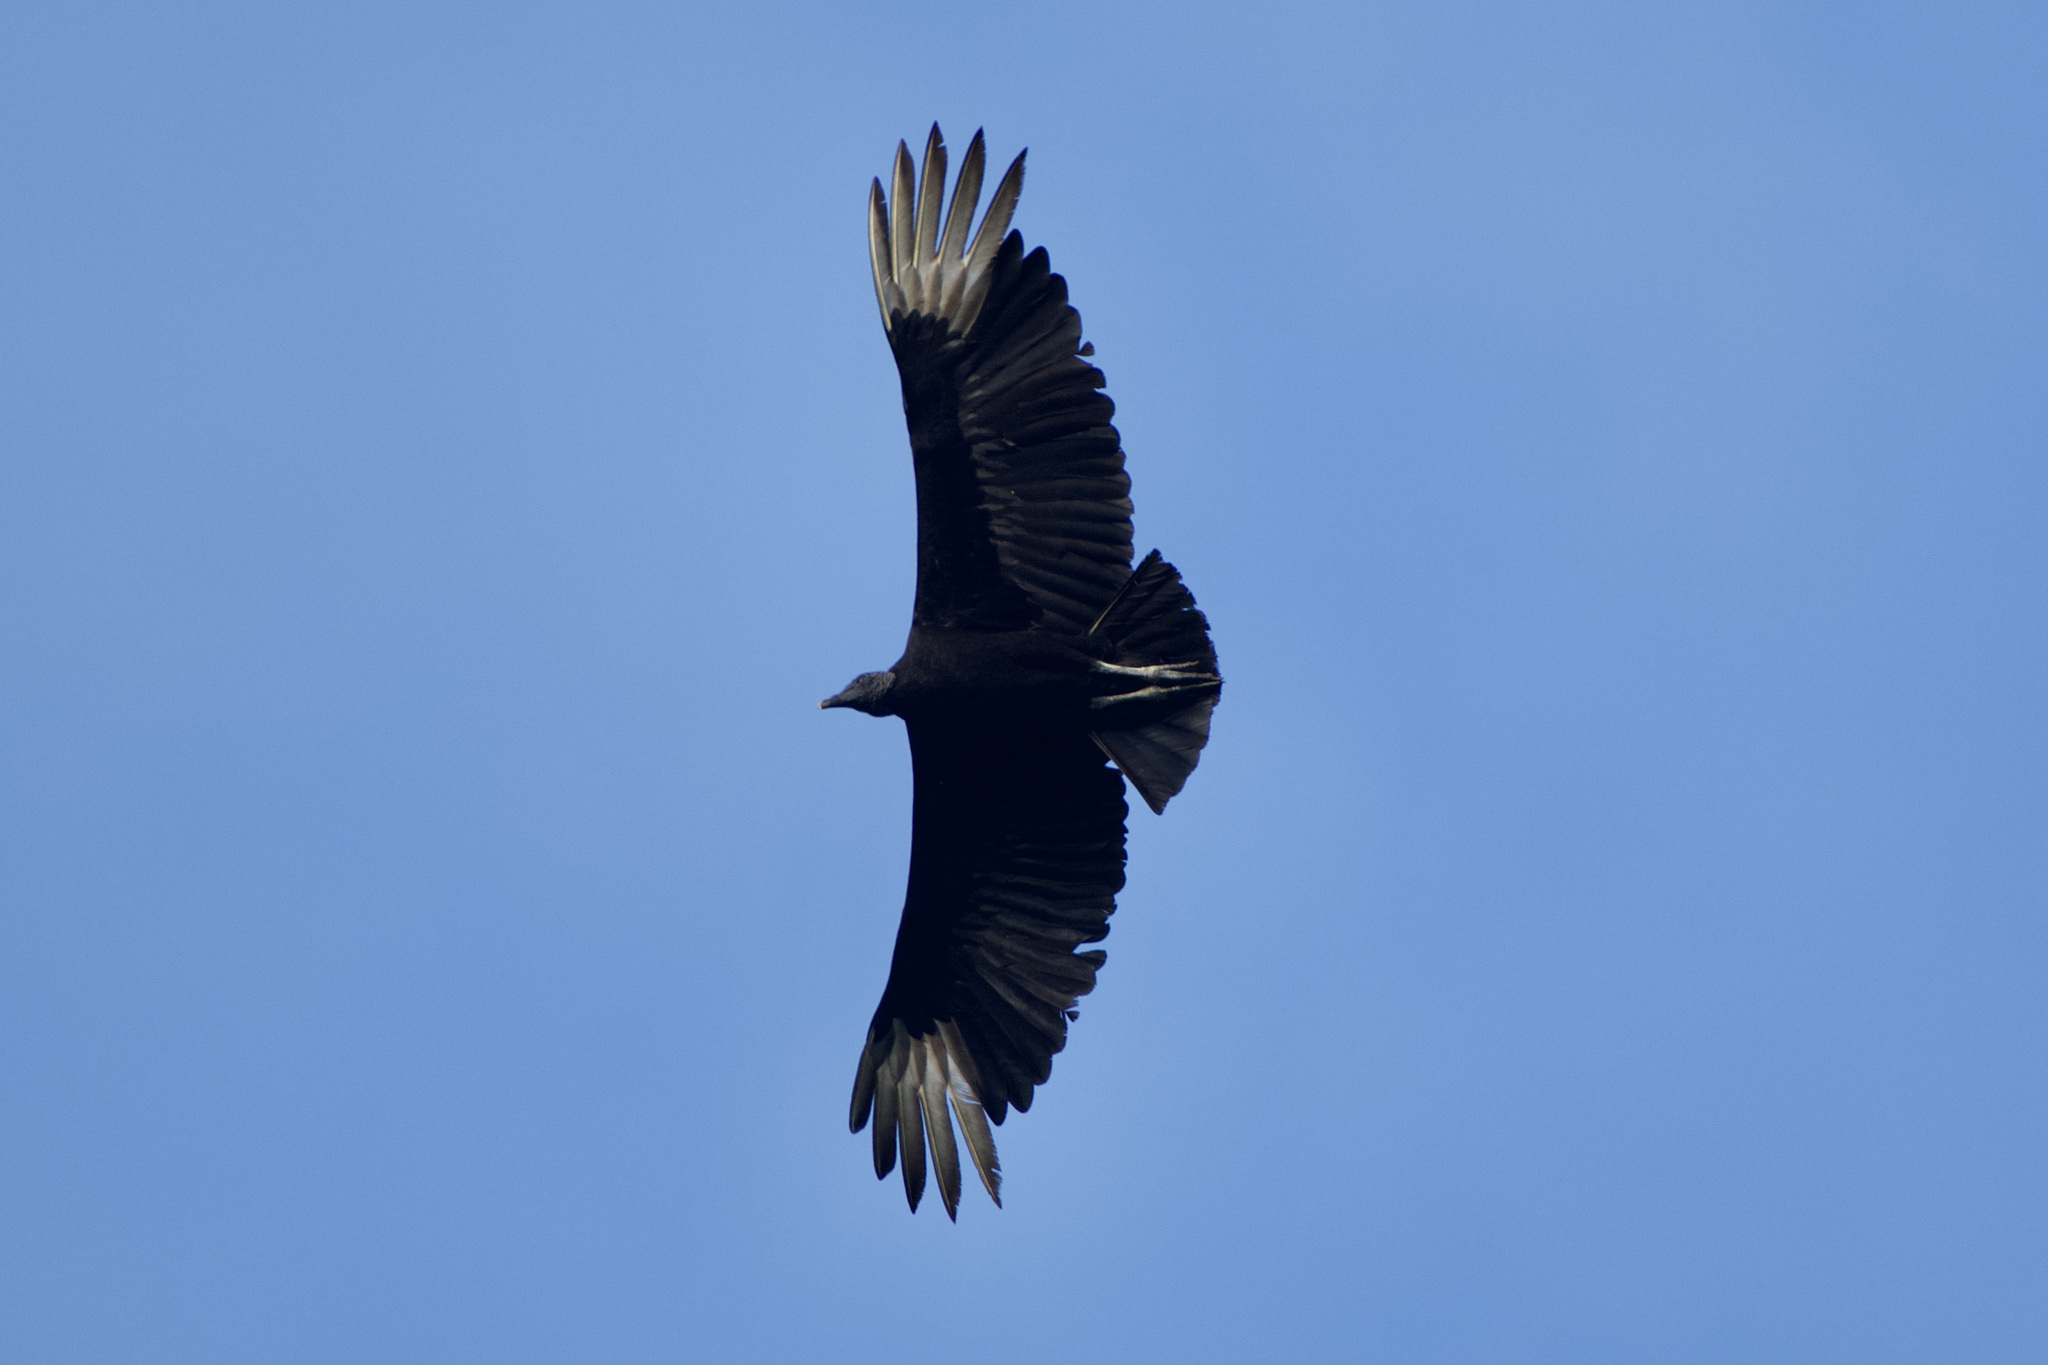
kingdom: Animalia
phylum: Chordata
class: Aves
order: Accipitriformes
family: Cathartidae
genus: Coragyps
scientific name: Coragyps atratus
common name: Black vulture
